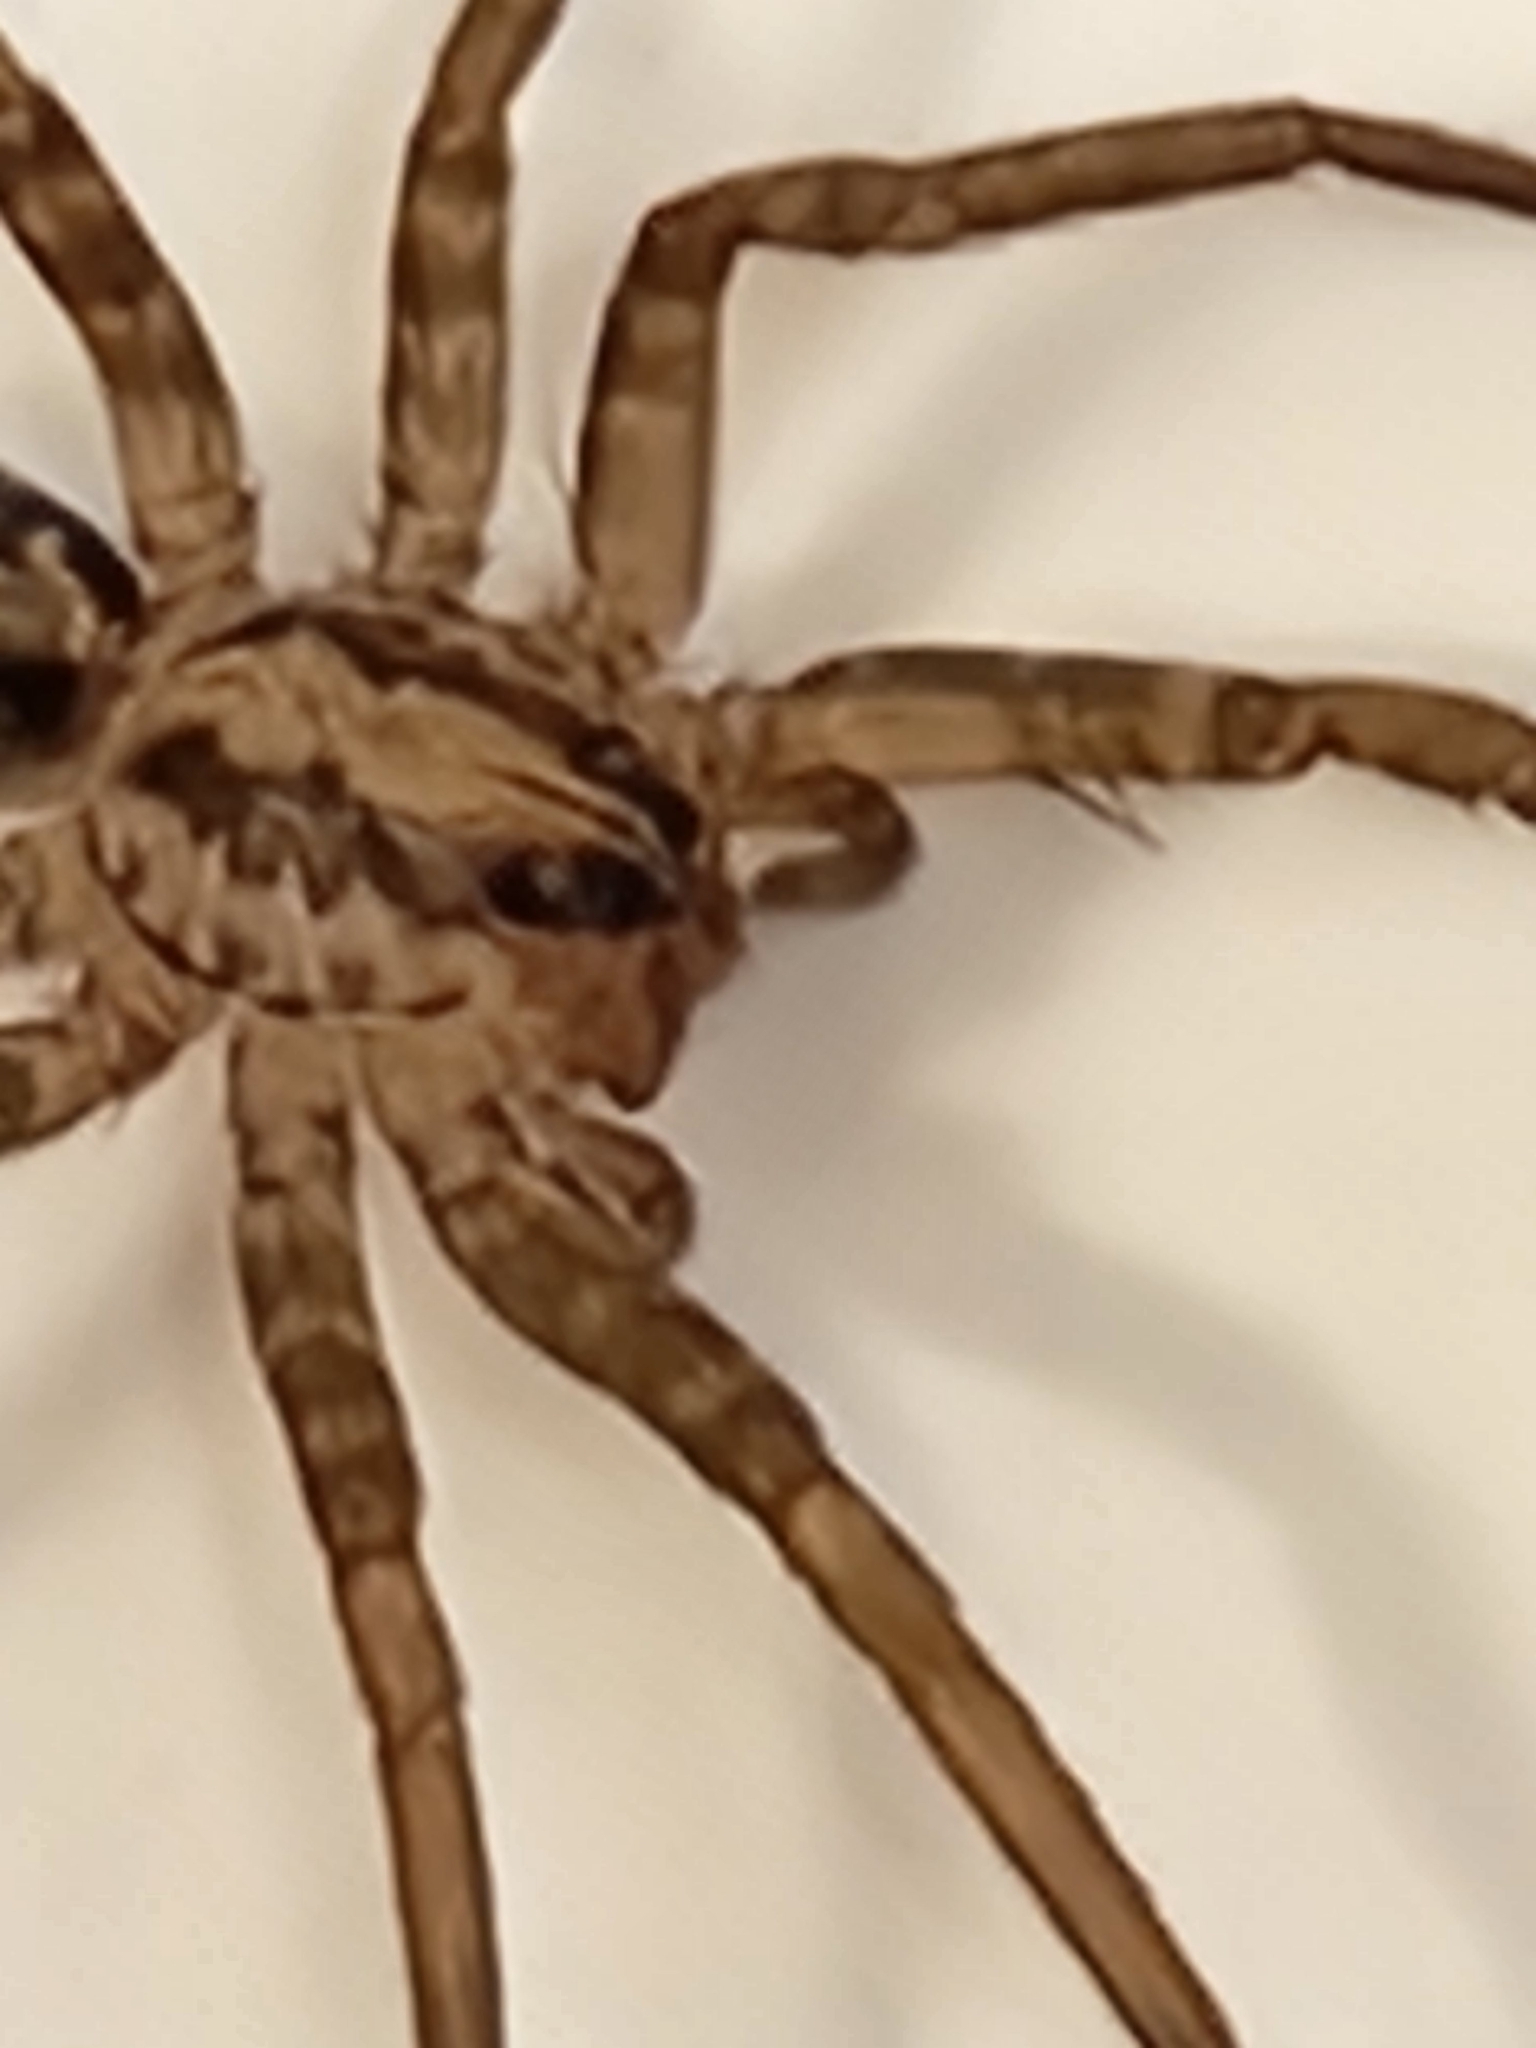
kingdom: Animalia
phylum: Arthropoda
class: Arachnida
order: Araneae
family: Ctenidae
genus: Leptoctenus
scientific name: Leptoctenus byrrhus
